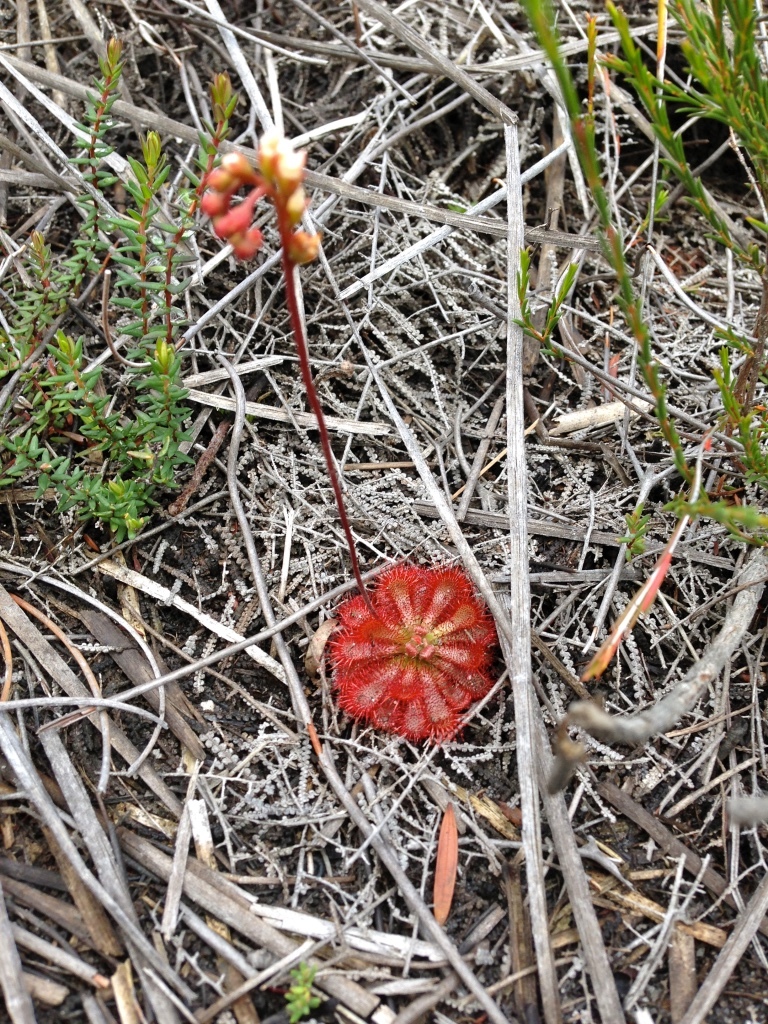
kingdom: Plantae
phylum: Tracheophyta
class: Magnoliopsida
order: Caryophyllales
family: Droseraceae
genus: Drosera
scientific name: Drosera spatulata
